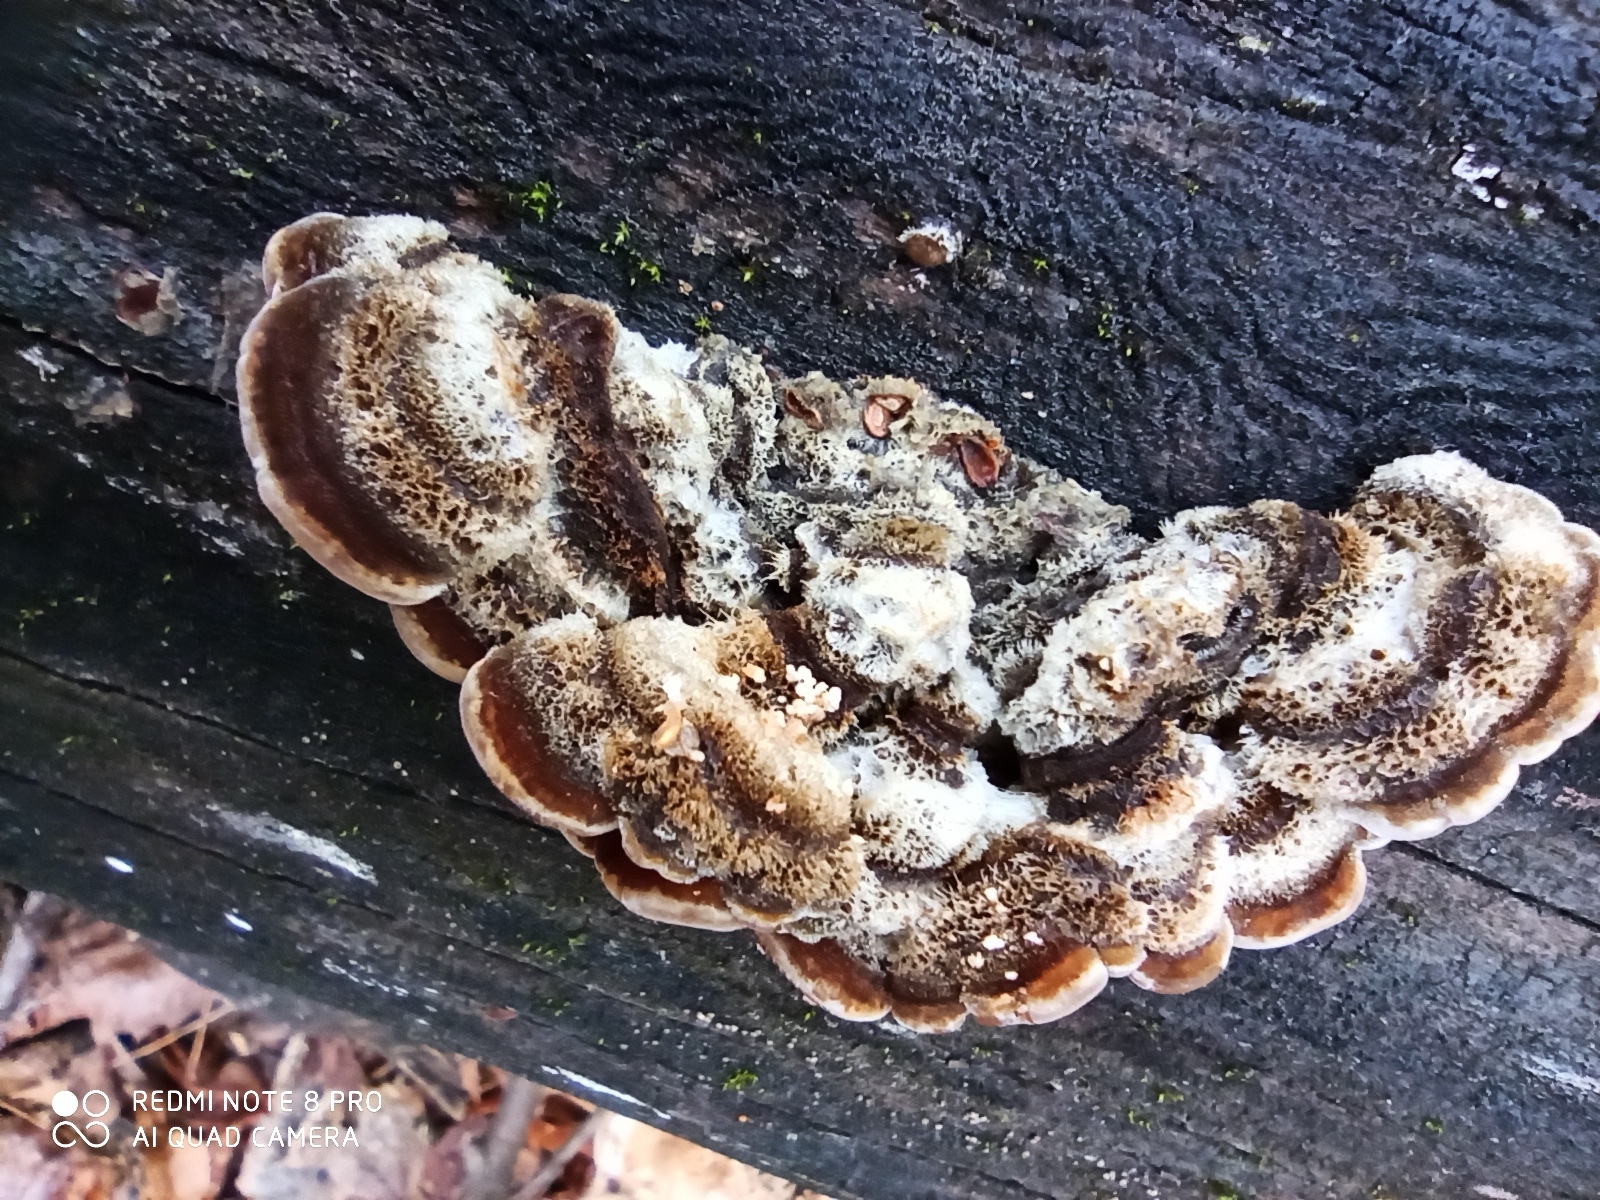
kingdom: Fungi
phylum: Basidiomycota
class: Agaricomycetes
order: Auriculariales
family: Auriculariaceae
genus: Auricularia
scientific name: Auricularia mesenterica
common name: Tripe fungus
